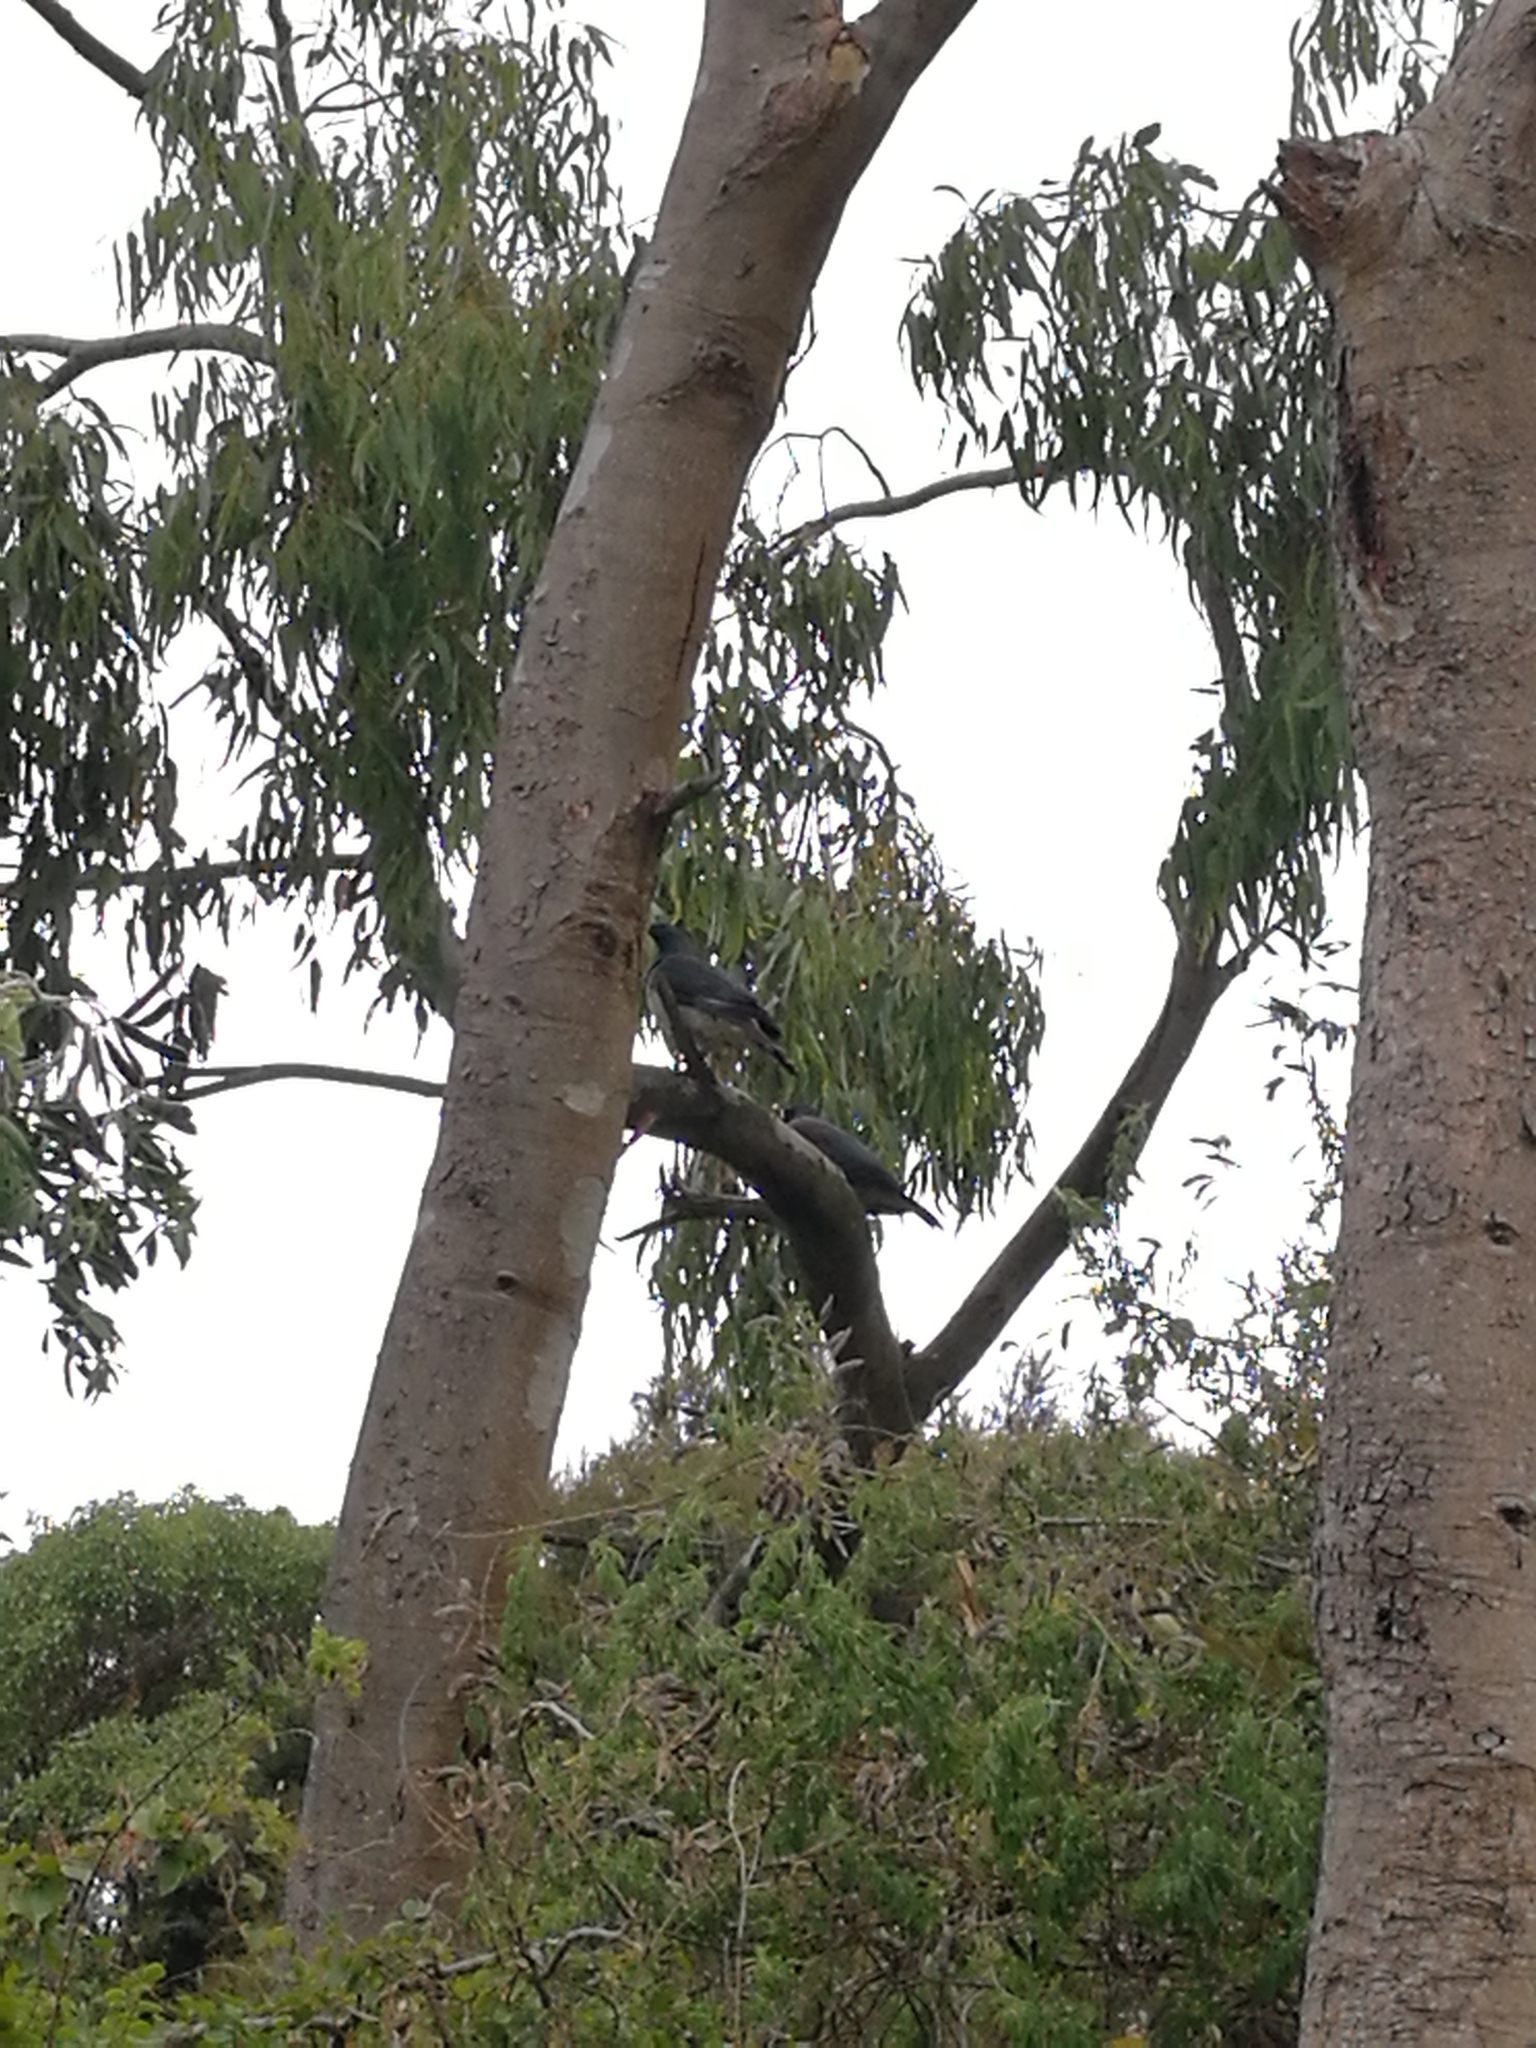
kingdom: Animalia
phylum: Chordata
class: Aves
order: Columbiformes
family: Columbidae
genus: Hemiphaga
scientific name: Hemiphaga novaeseelandiae
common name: New zealand pigeon
